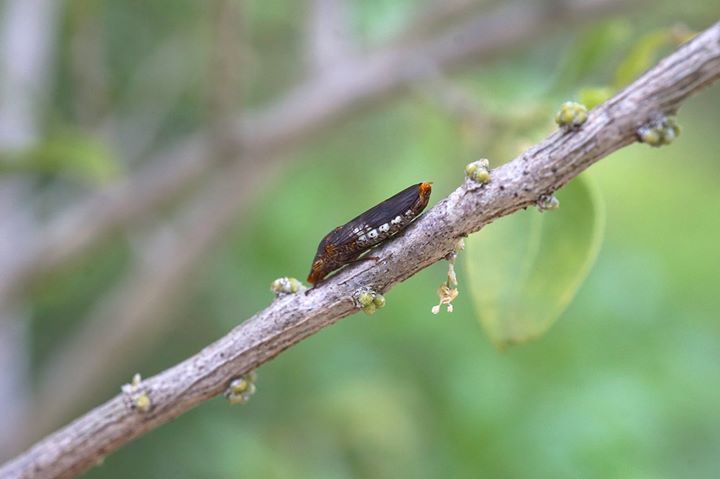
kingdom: Animalia
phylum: Arthropoda
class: Insecta
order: Hemiptera
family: Cicadellidae
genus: Homalodisca
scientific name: Homalodisca vitripennis
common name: Glassy-winged sharpshooter
